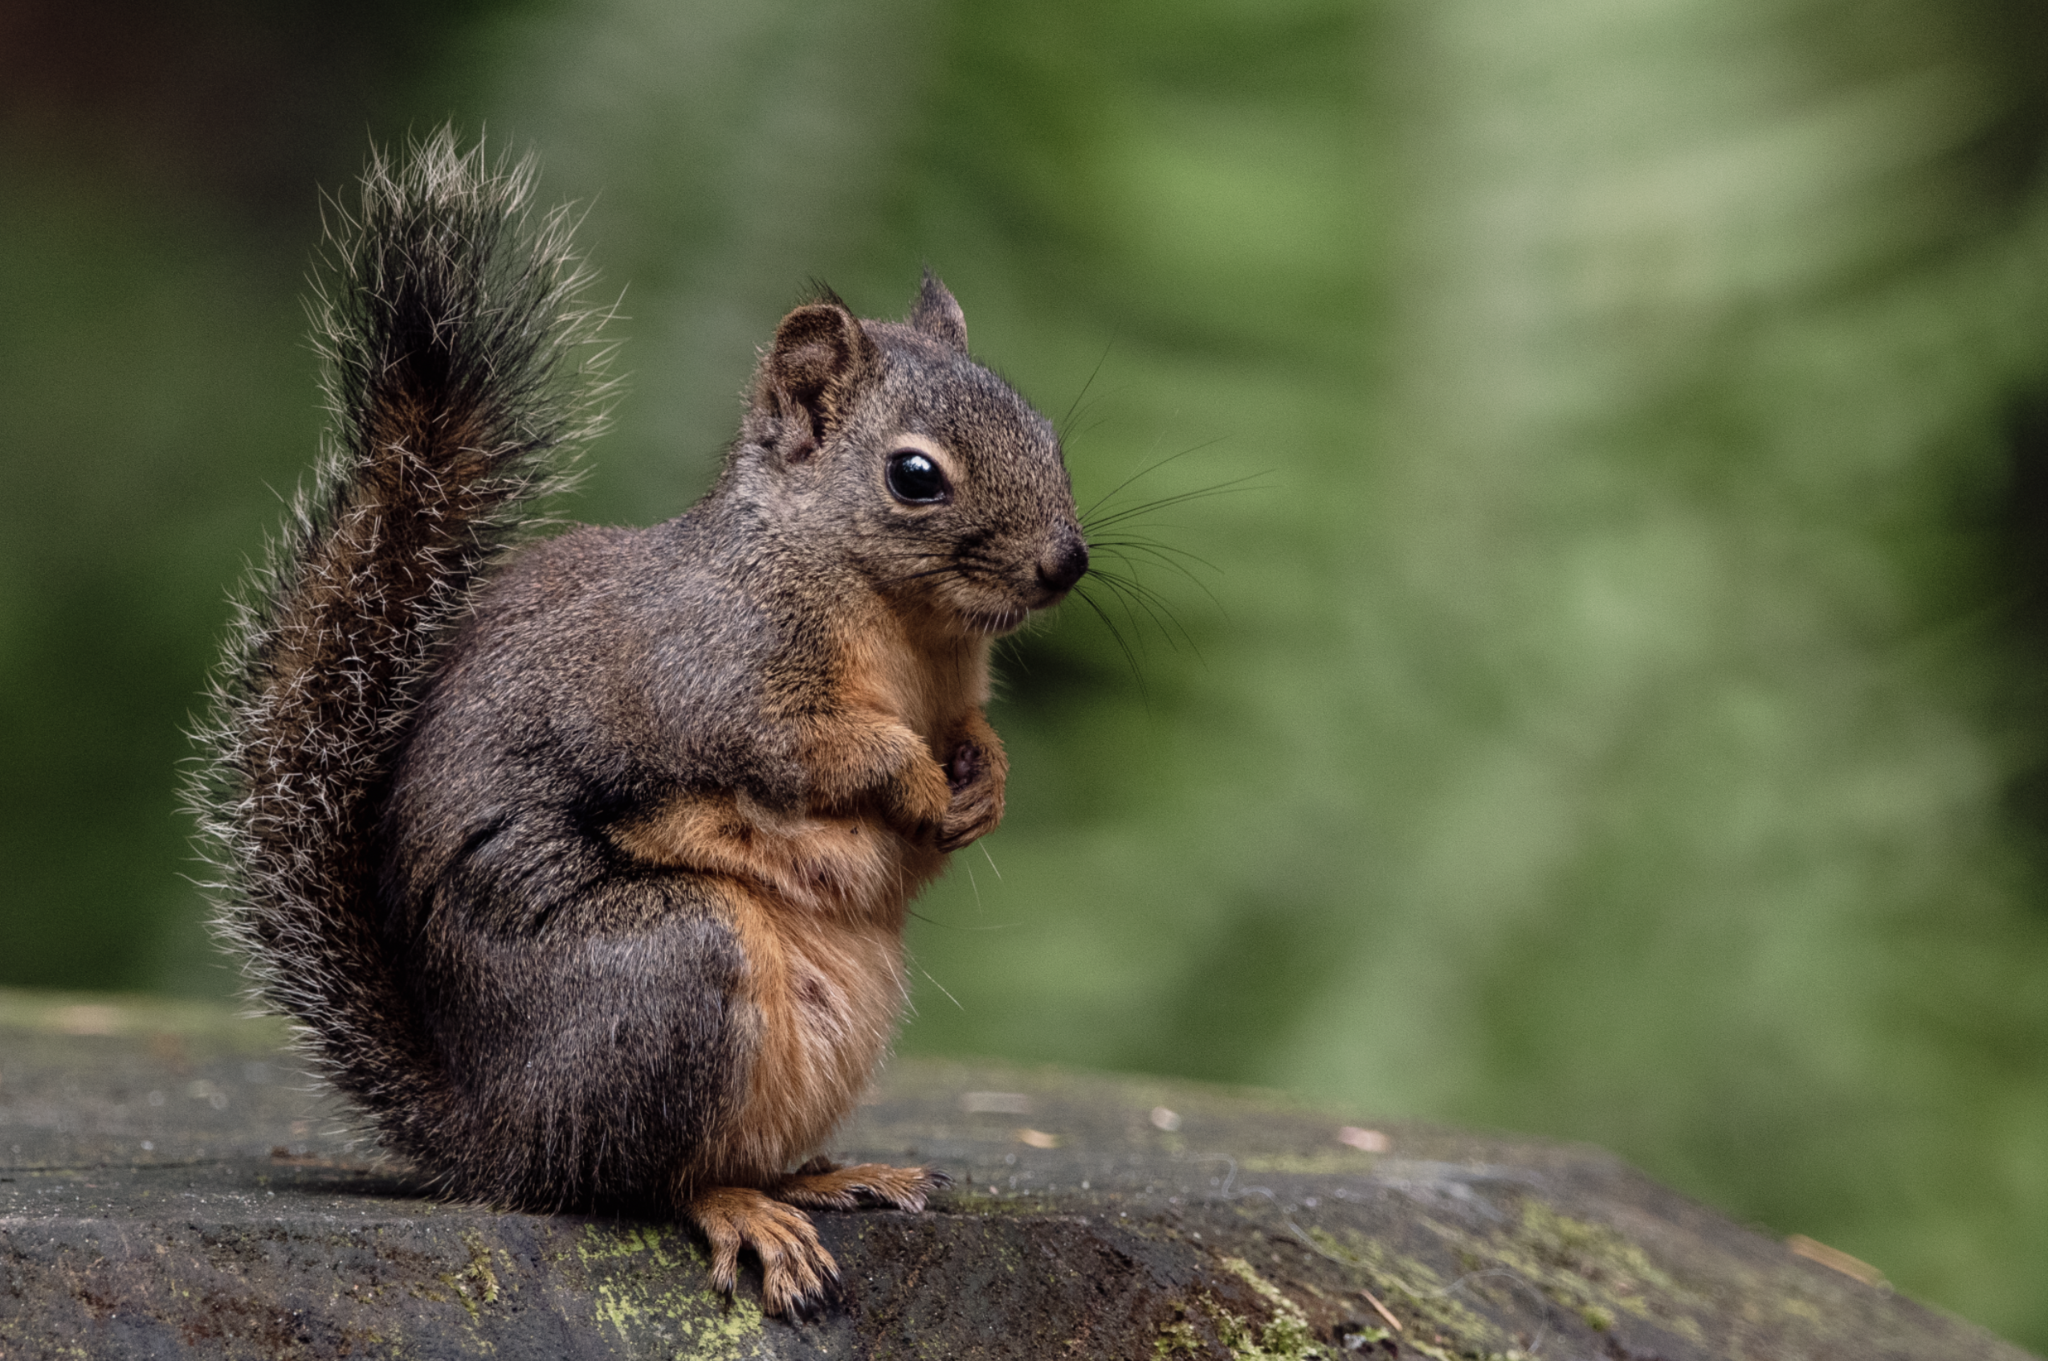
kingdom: Animalia
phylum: Chordata
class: Mammalia
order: Rodentia
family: Sciuridae
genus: Tamiasciurus
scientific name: Tamiasciurus douglasii
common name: Douglas's squirrel
